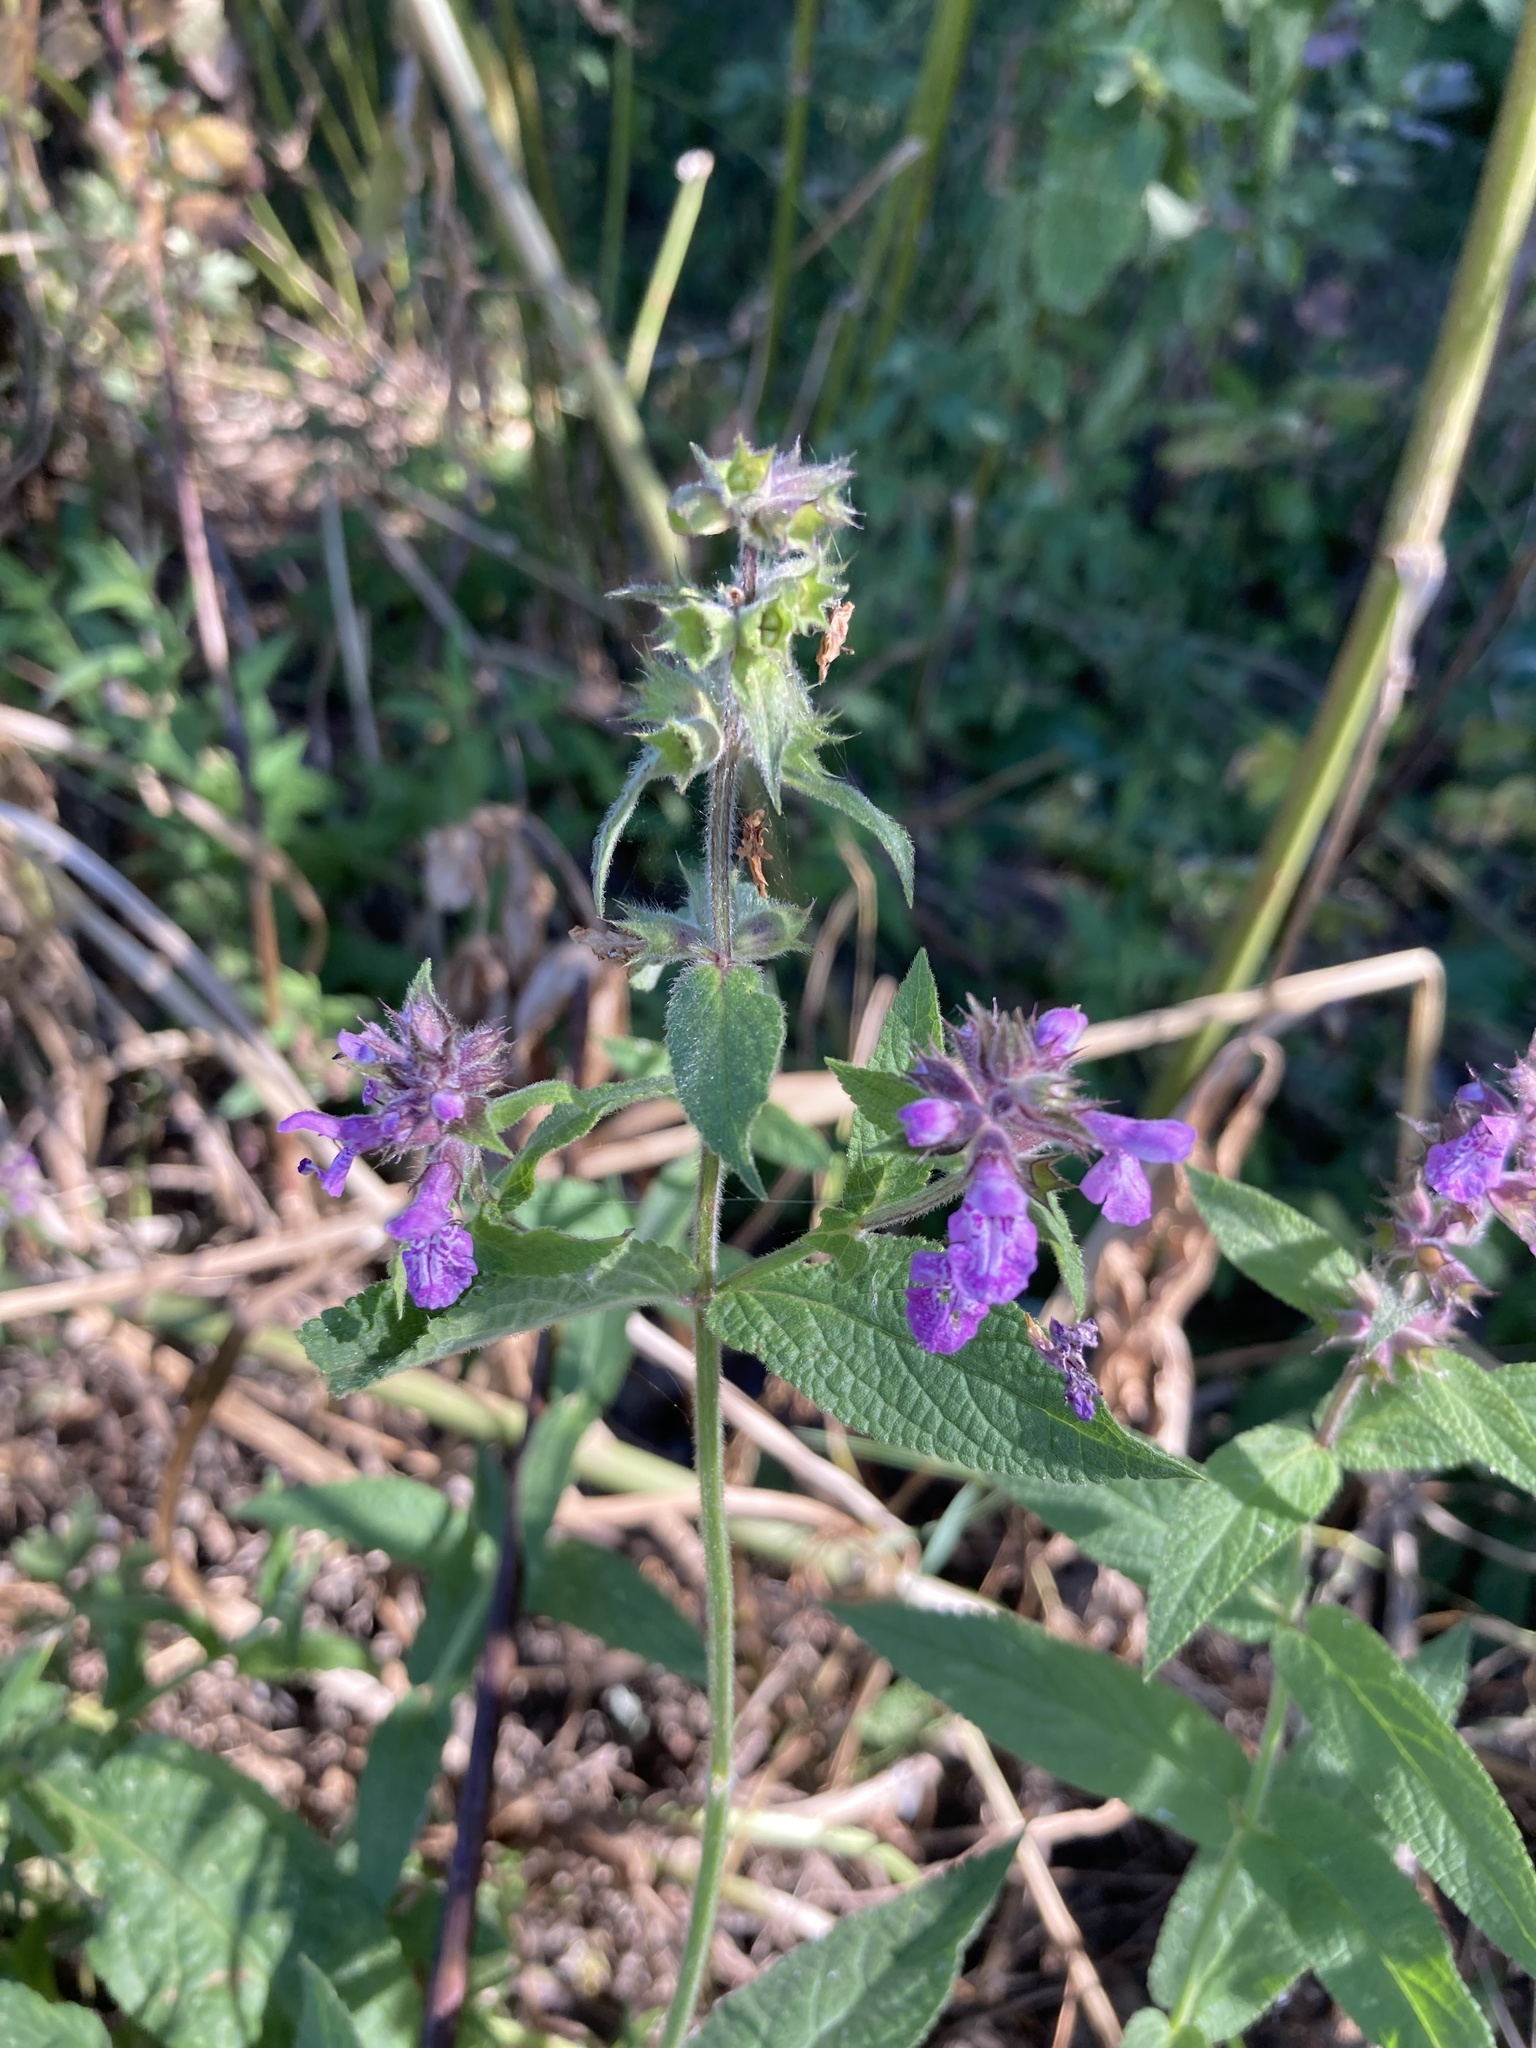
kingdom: Plantae
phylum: Tracheophyta
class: Magnoliopsida
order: Lamiales
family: Lamiaceae
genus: Stachys
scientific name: Stachys palustris
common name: Marsh woundwort
